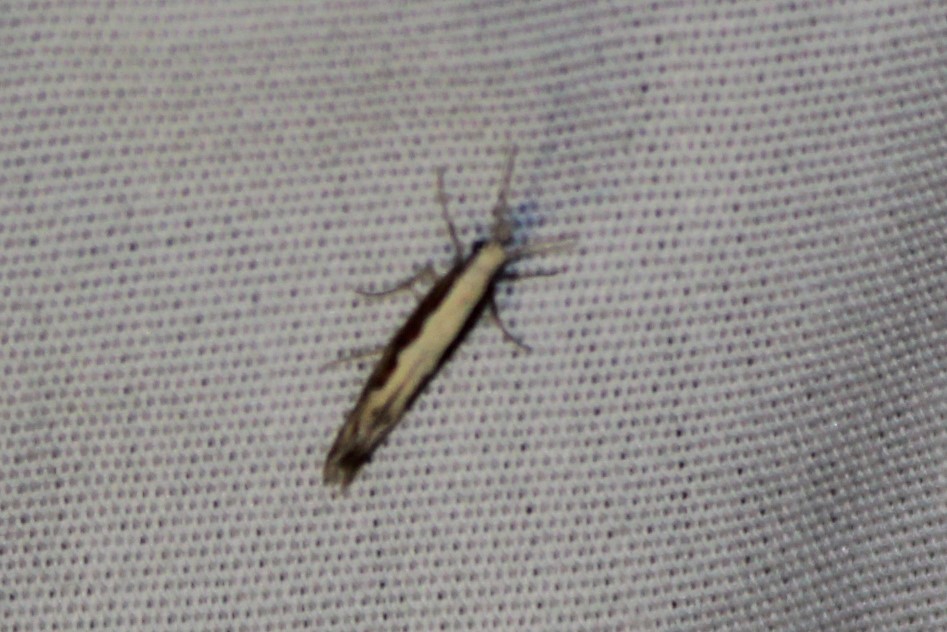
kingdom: Animalia
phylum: Arthropoda
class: Insecta
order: Lepidoptera
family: Plutellidae
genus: Plutella
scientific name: Plutella xylostella
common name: Diamond-back moth
